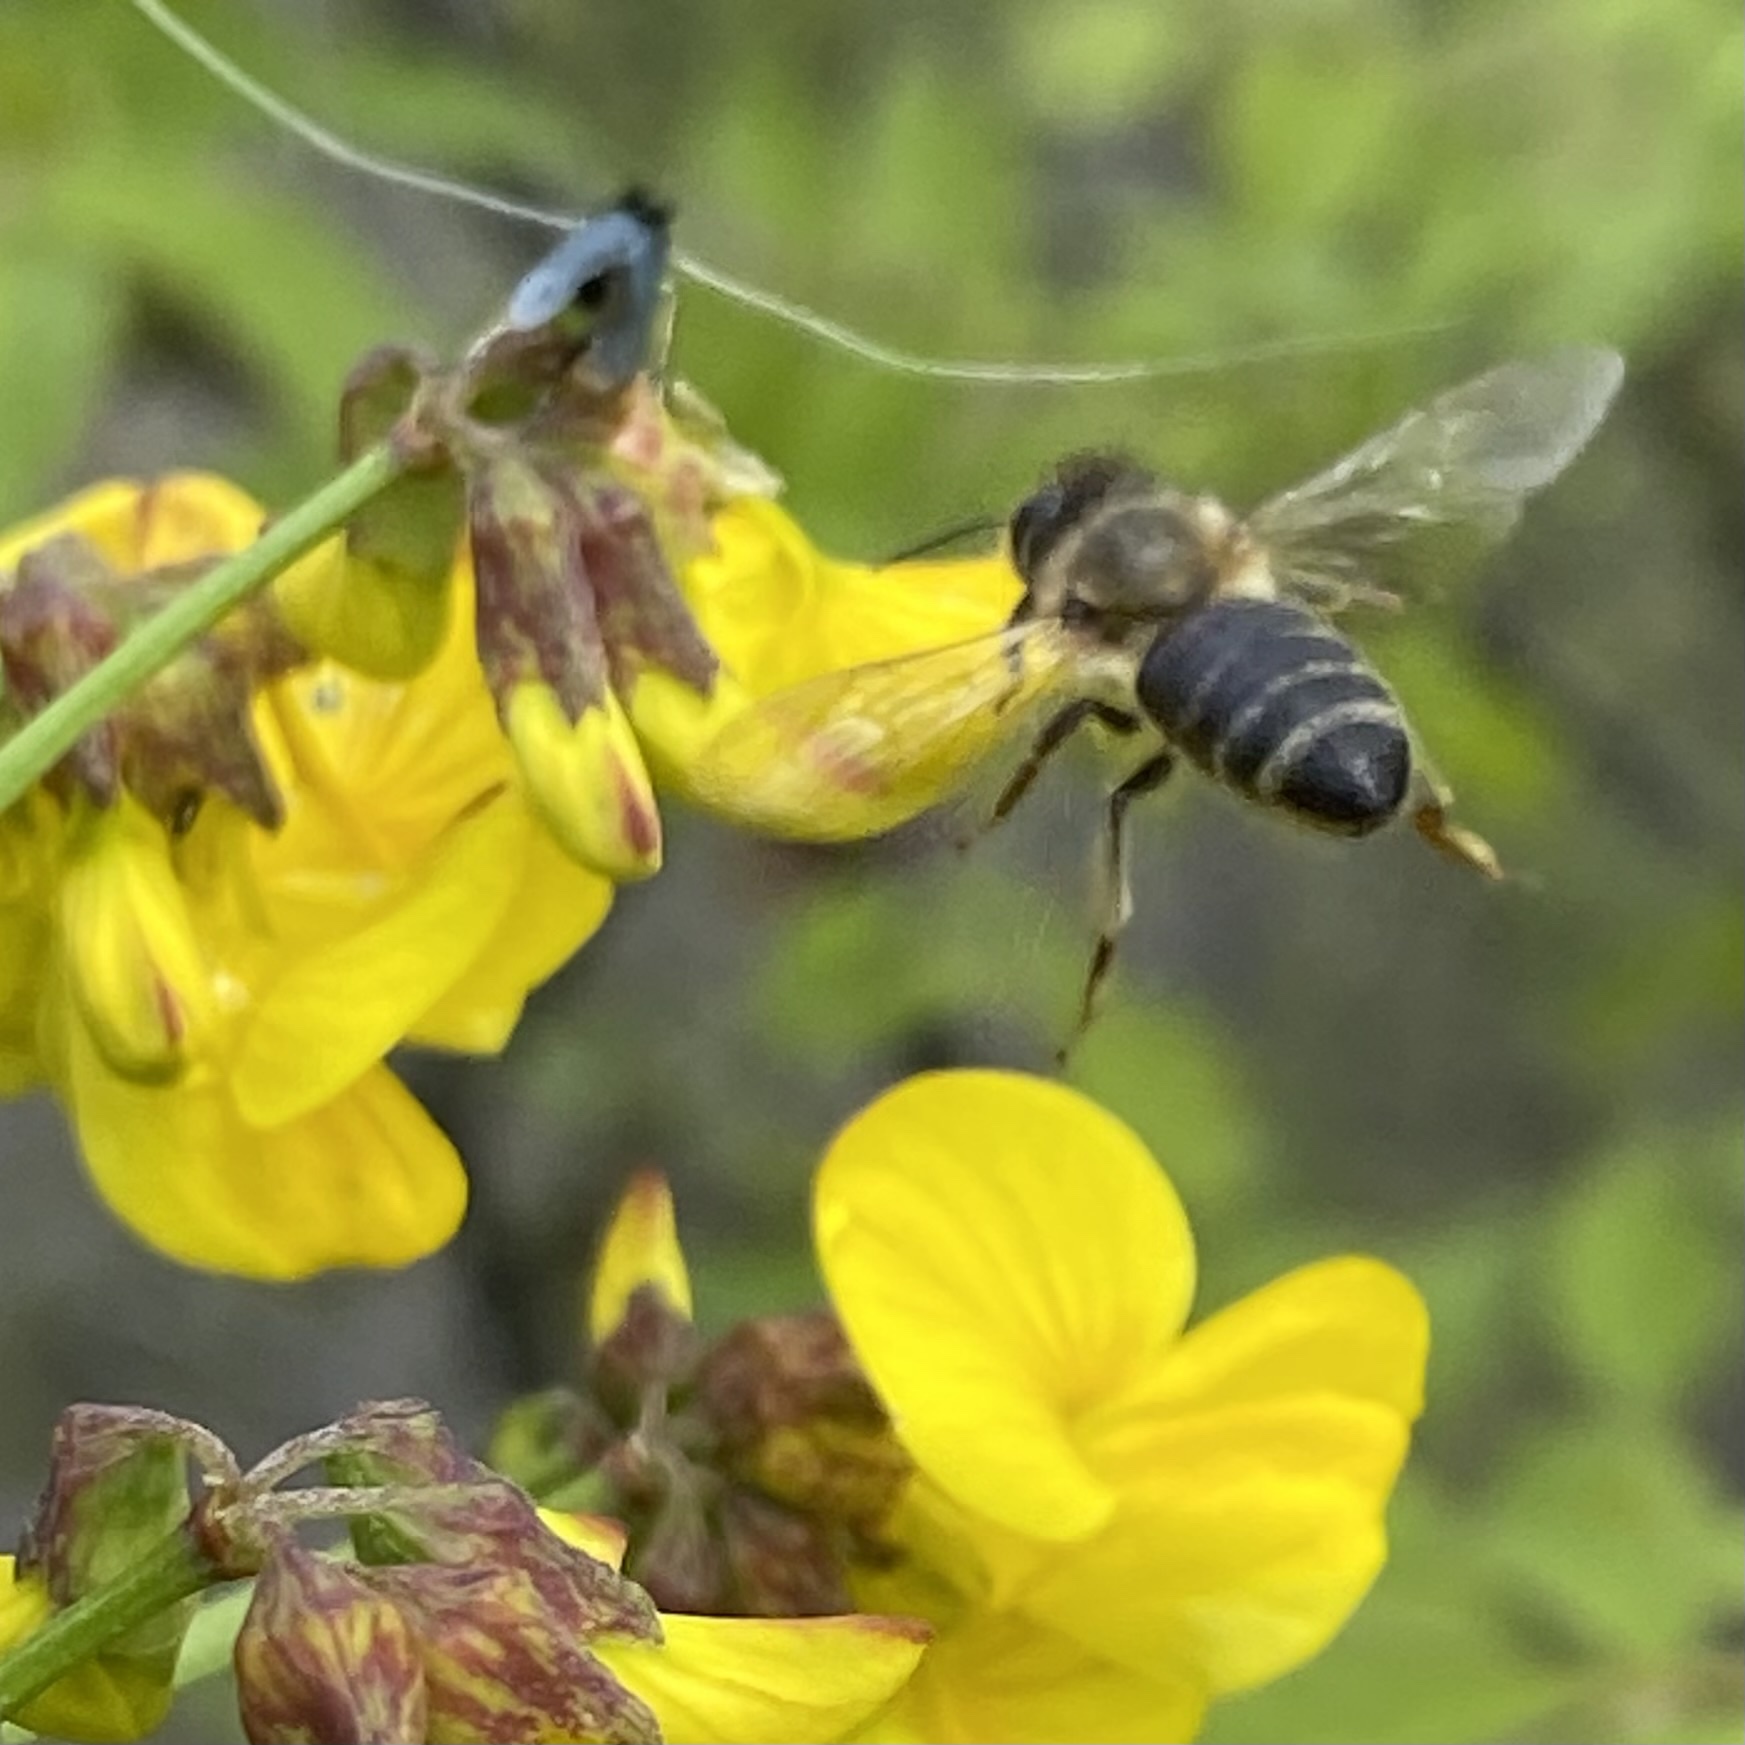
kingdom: Animalia
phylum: Arthropoda
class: Insecta
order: Hymenoptera
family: Apidae
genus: Apis
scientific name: Apis mellifera
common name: Honey bee
